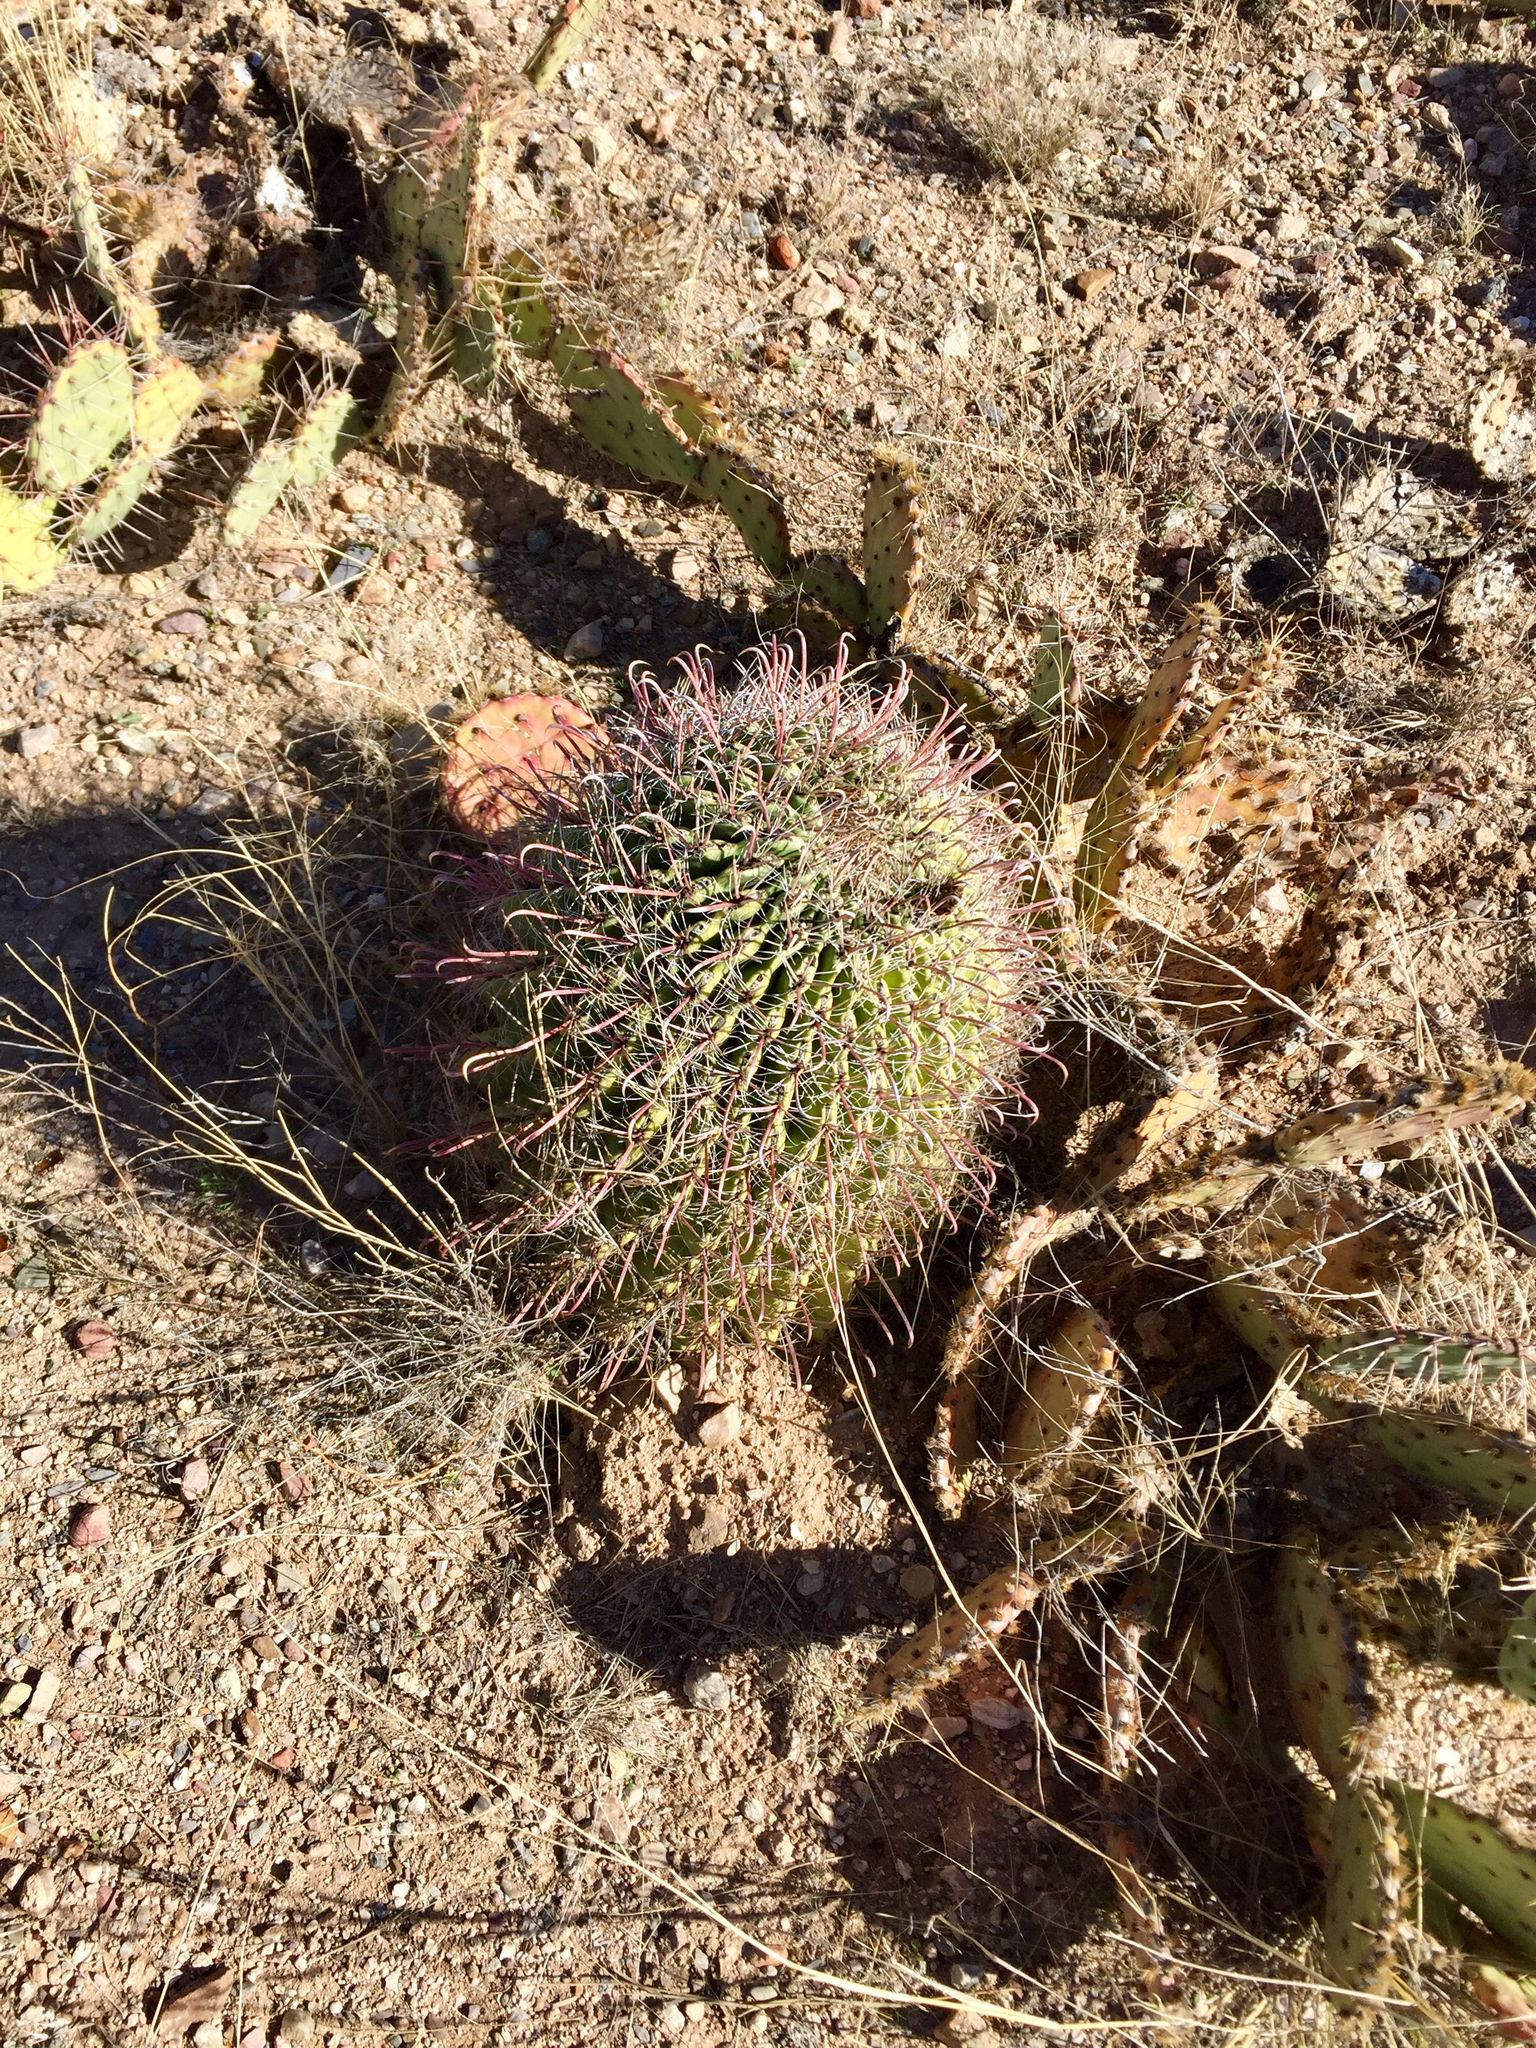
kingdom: Plantae
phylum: Tracheophyta
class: Magnoliopsida
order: Caryophyllales
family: Cactaceae
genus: Ferocactus
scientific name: Ferocactus wislizeni
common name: Candy barrel cactus
